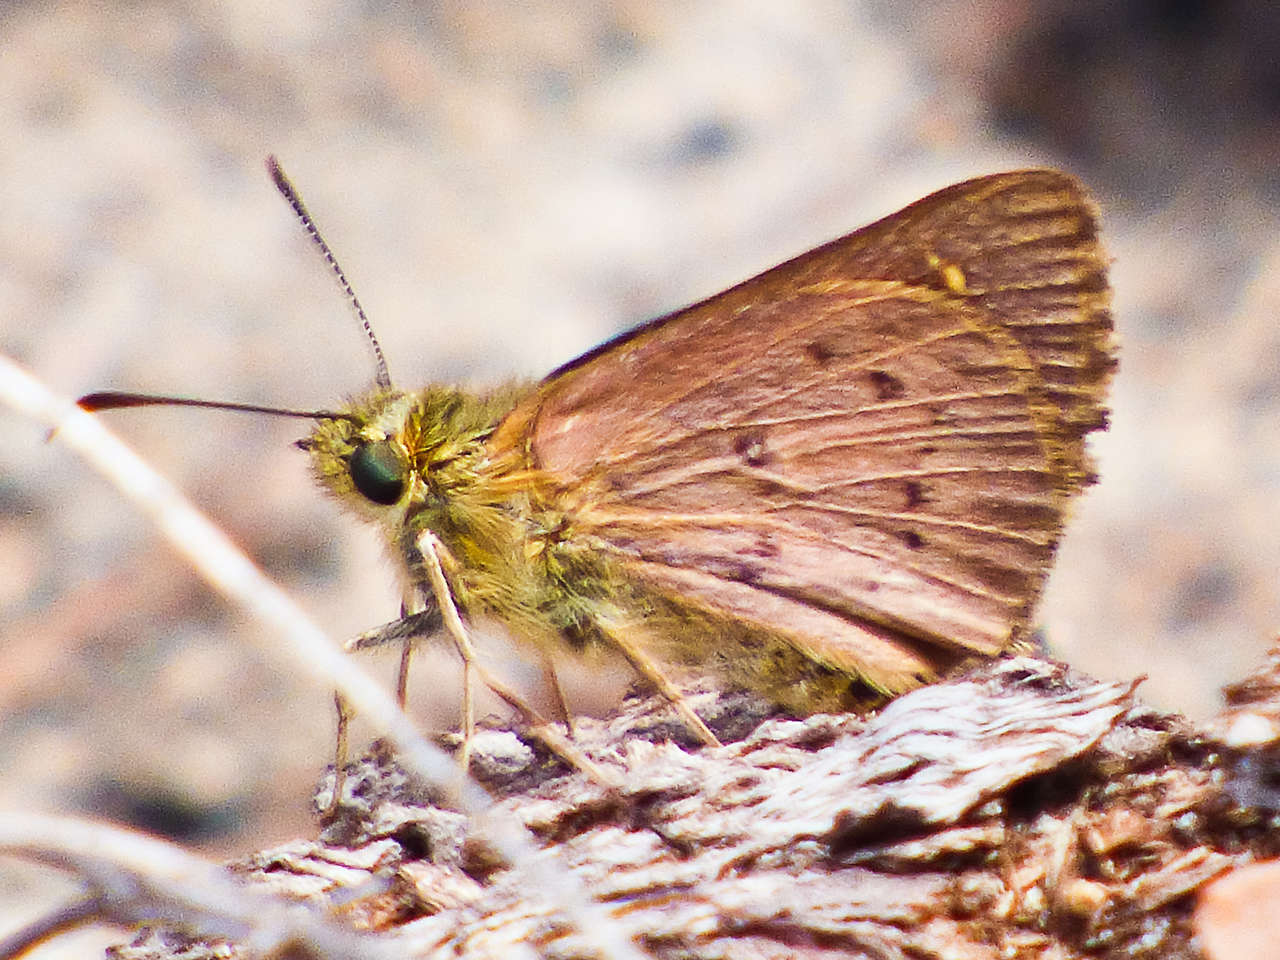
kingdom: Animalia
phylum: Arthropoda
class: Insecta
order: Lepidoptera
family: Hesperiidae
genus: Toxidia
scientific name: Toxidia
